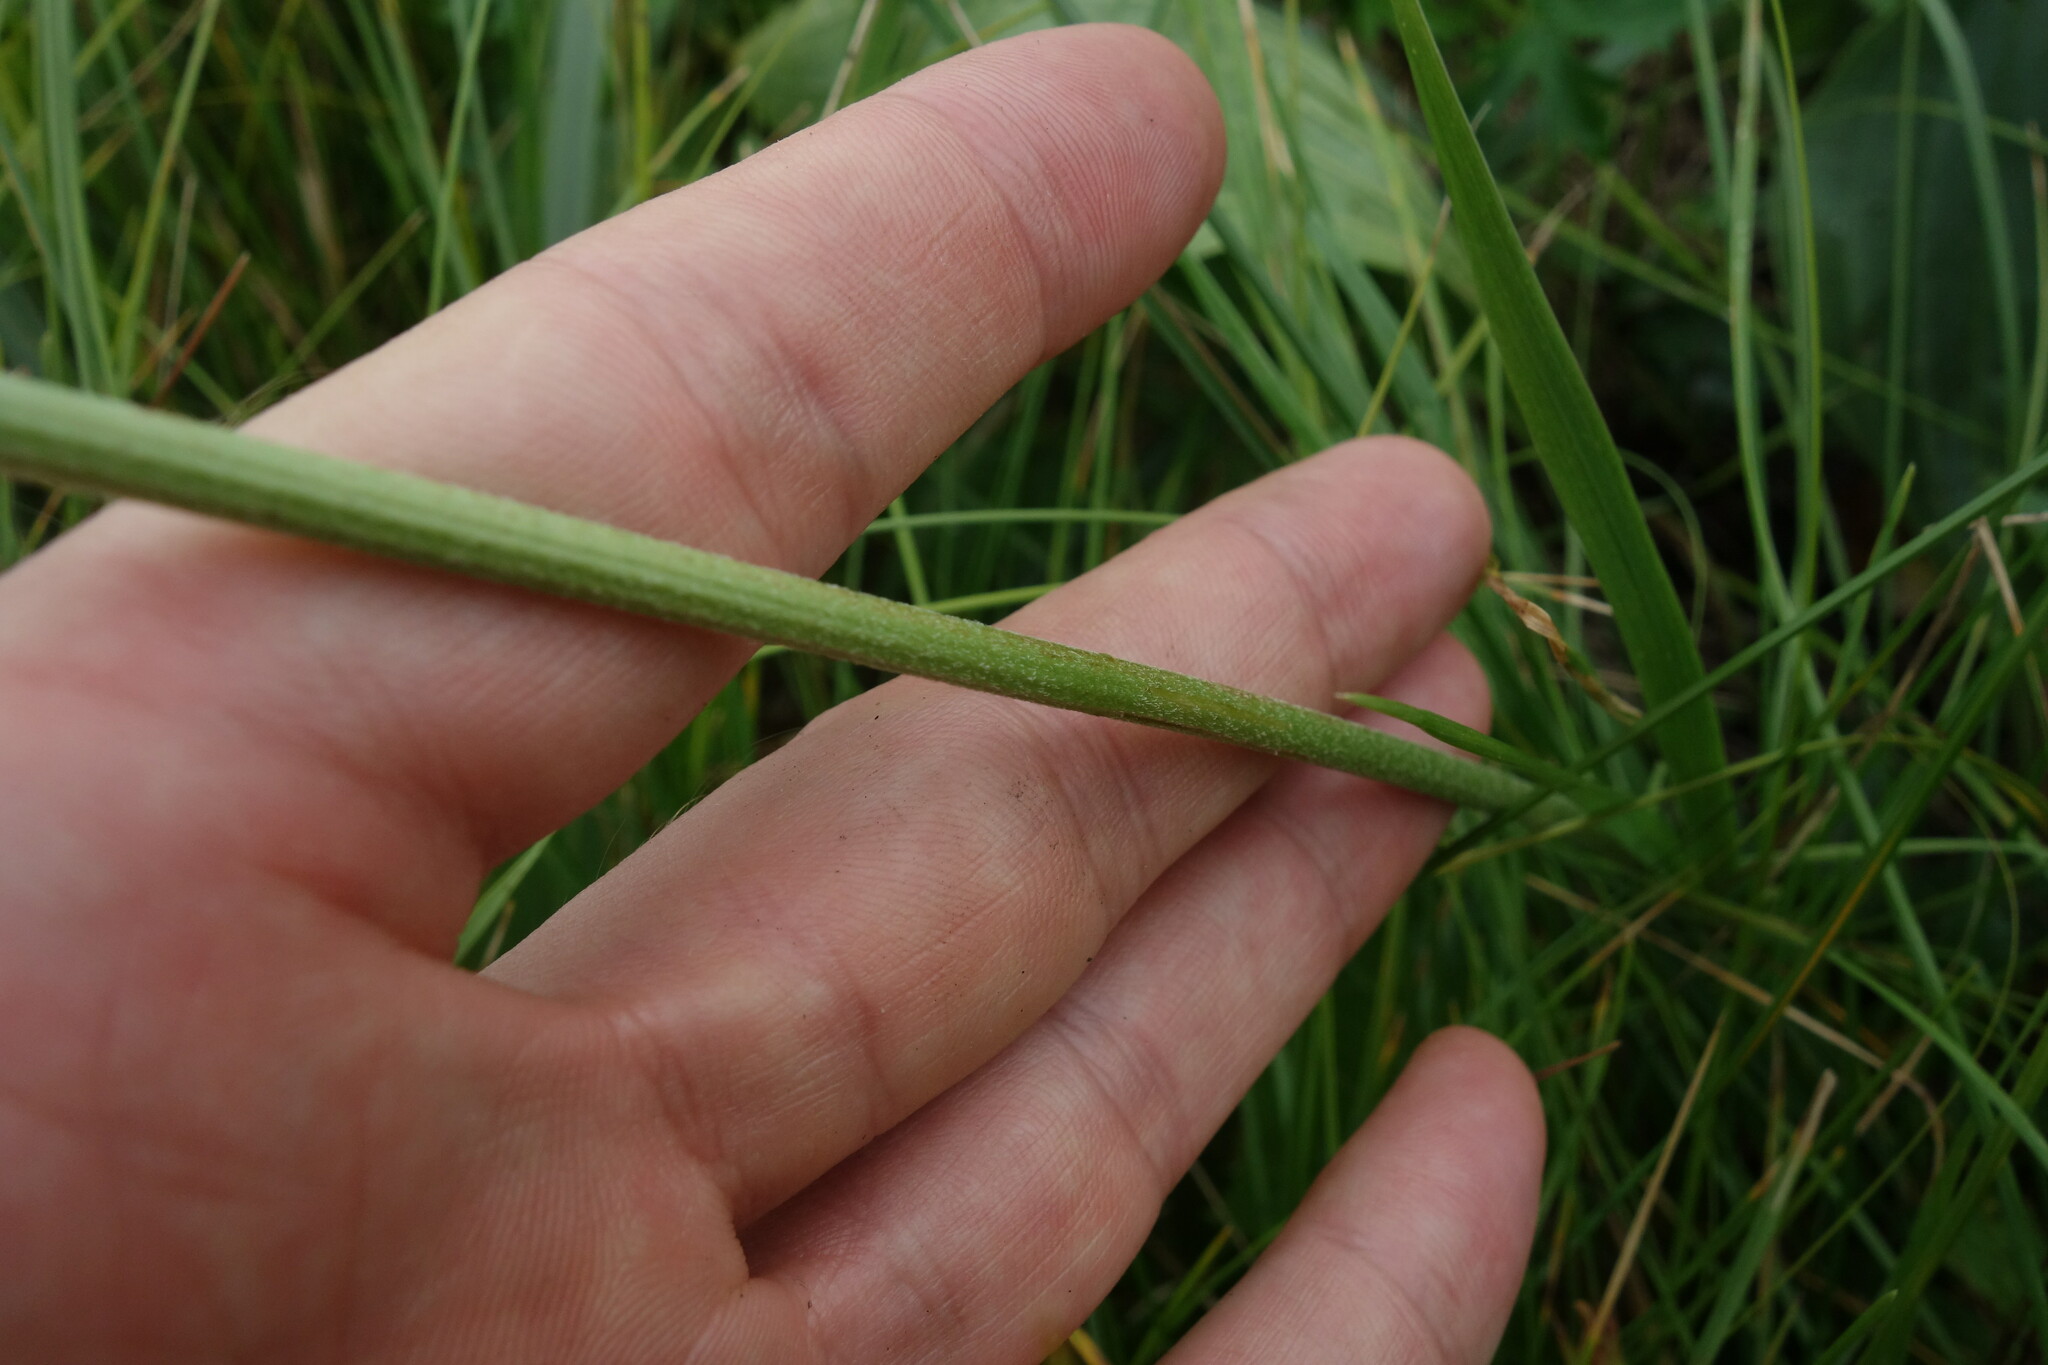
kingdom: Plantae
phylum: Tracheophyta
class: Magnoliopsida
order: Lamiales
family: Plantaginaceae
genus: Plantago
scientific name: Plantago maxima
